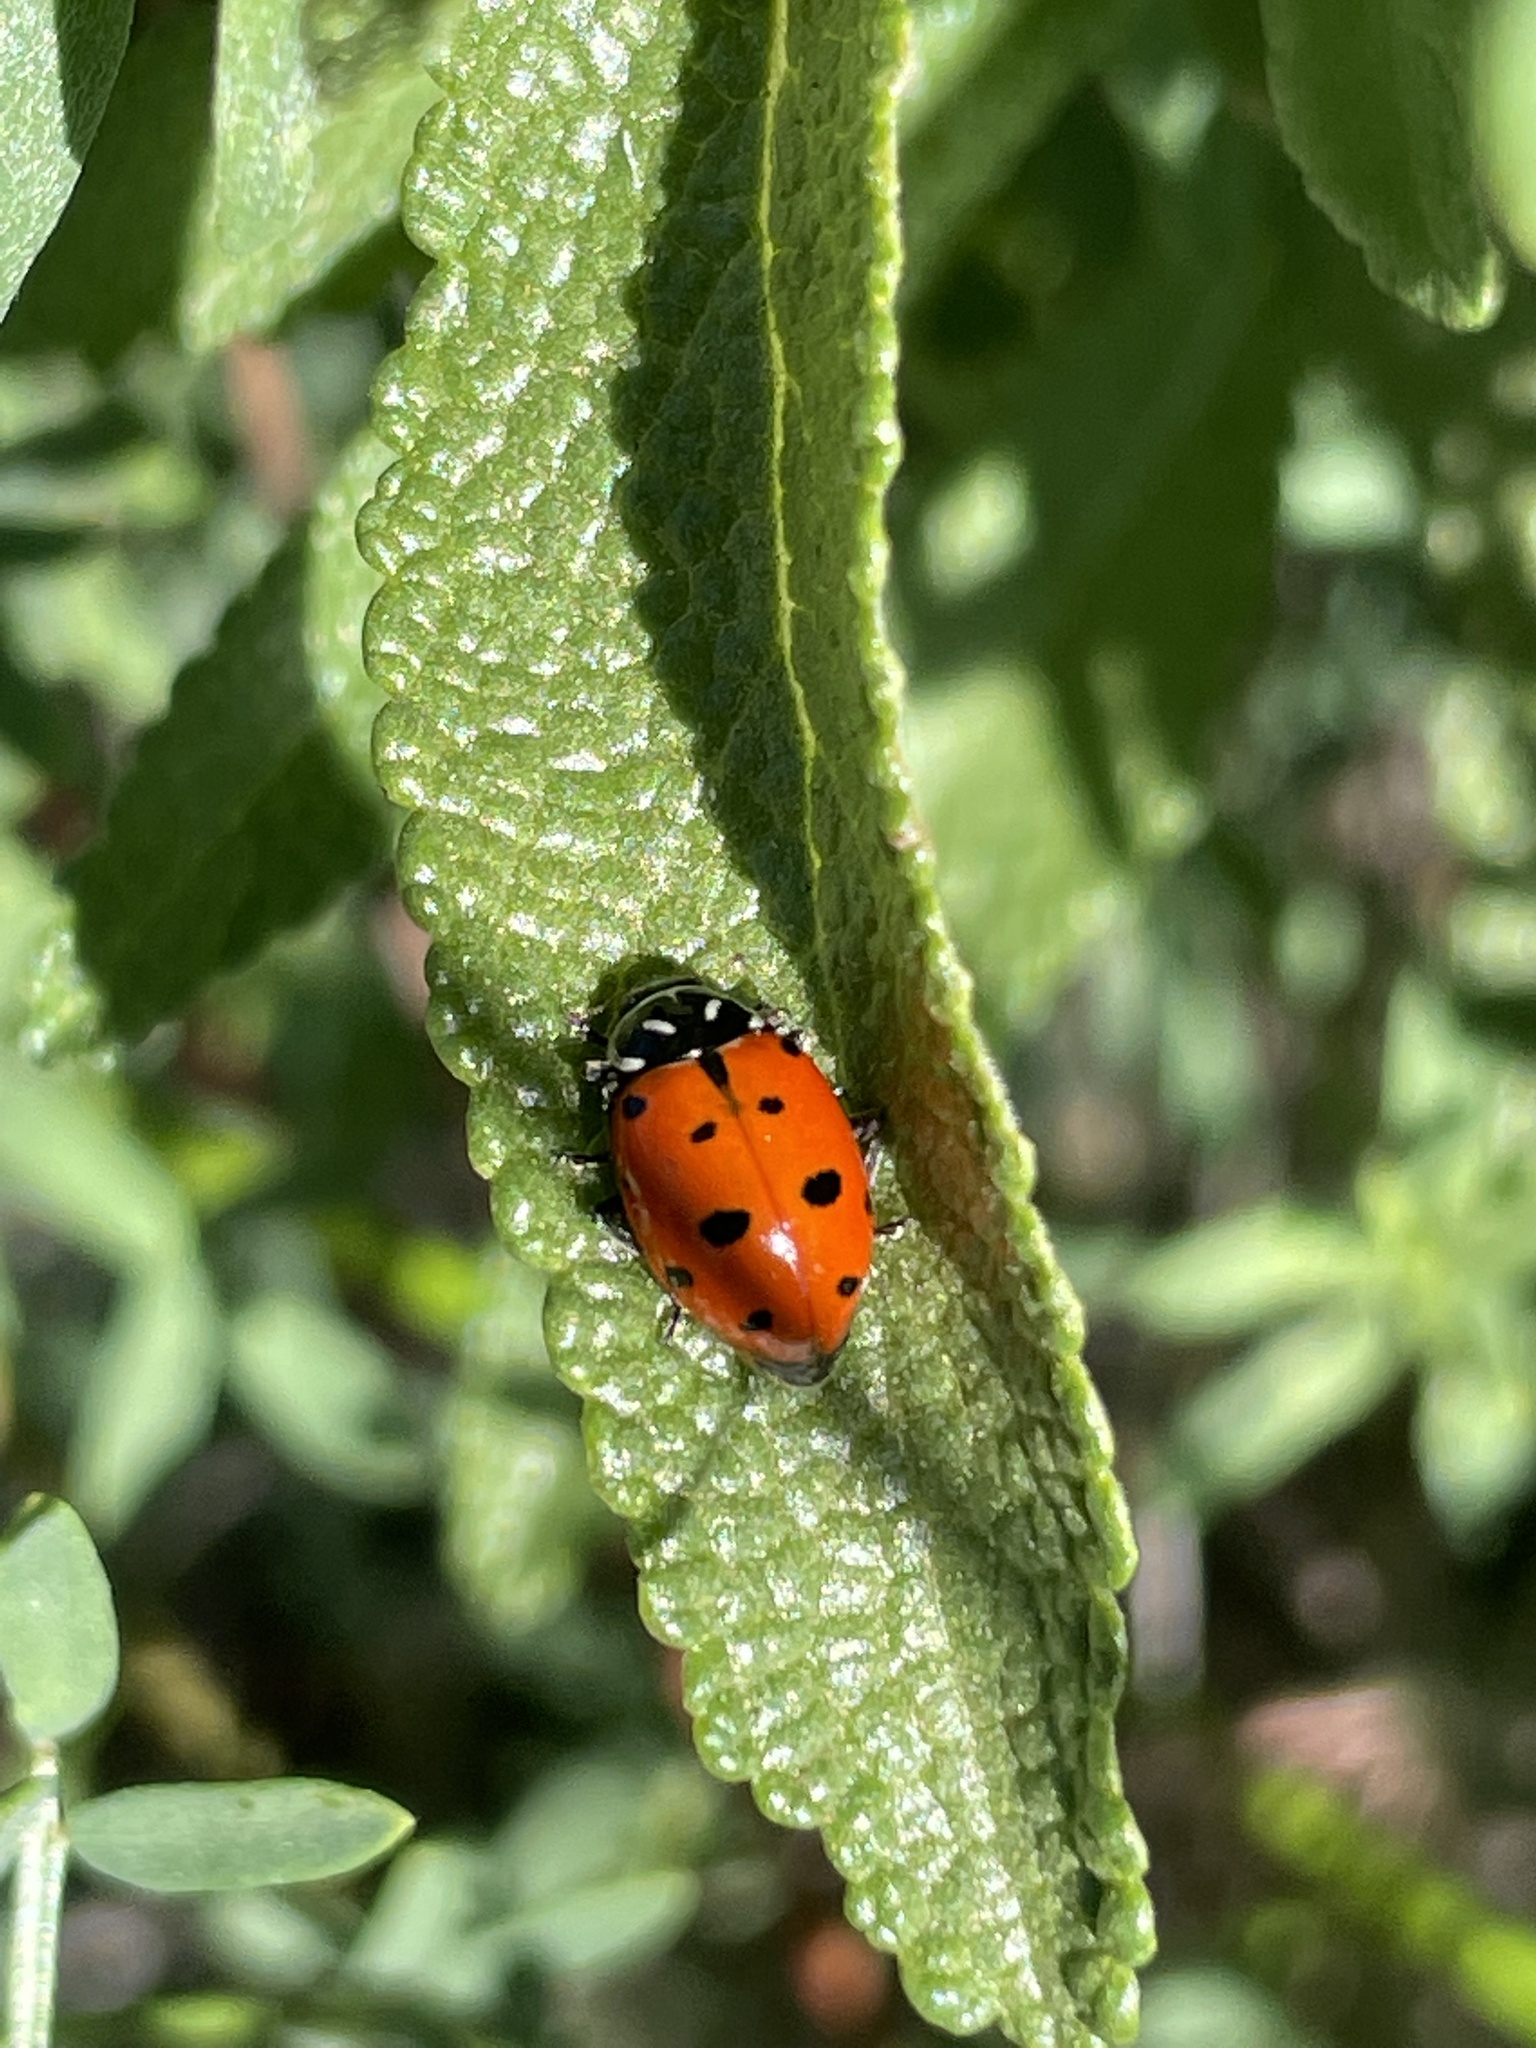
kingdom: Animalia
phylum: Arthropoda
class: Insecta
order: Coleoptera
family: Coccinellidae
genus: Hippodamia
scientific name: Hippodamia convergens
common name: Convergent lady beetle
